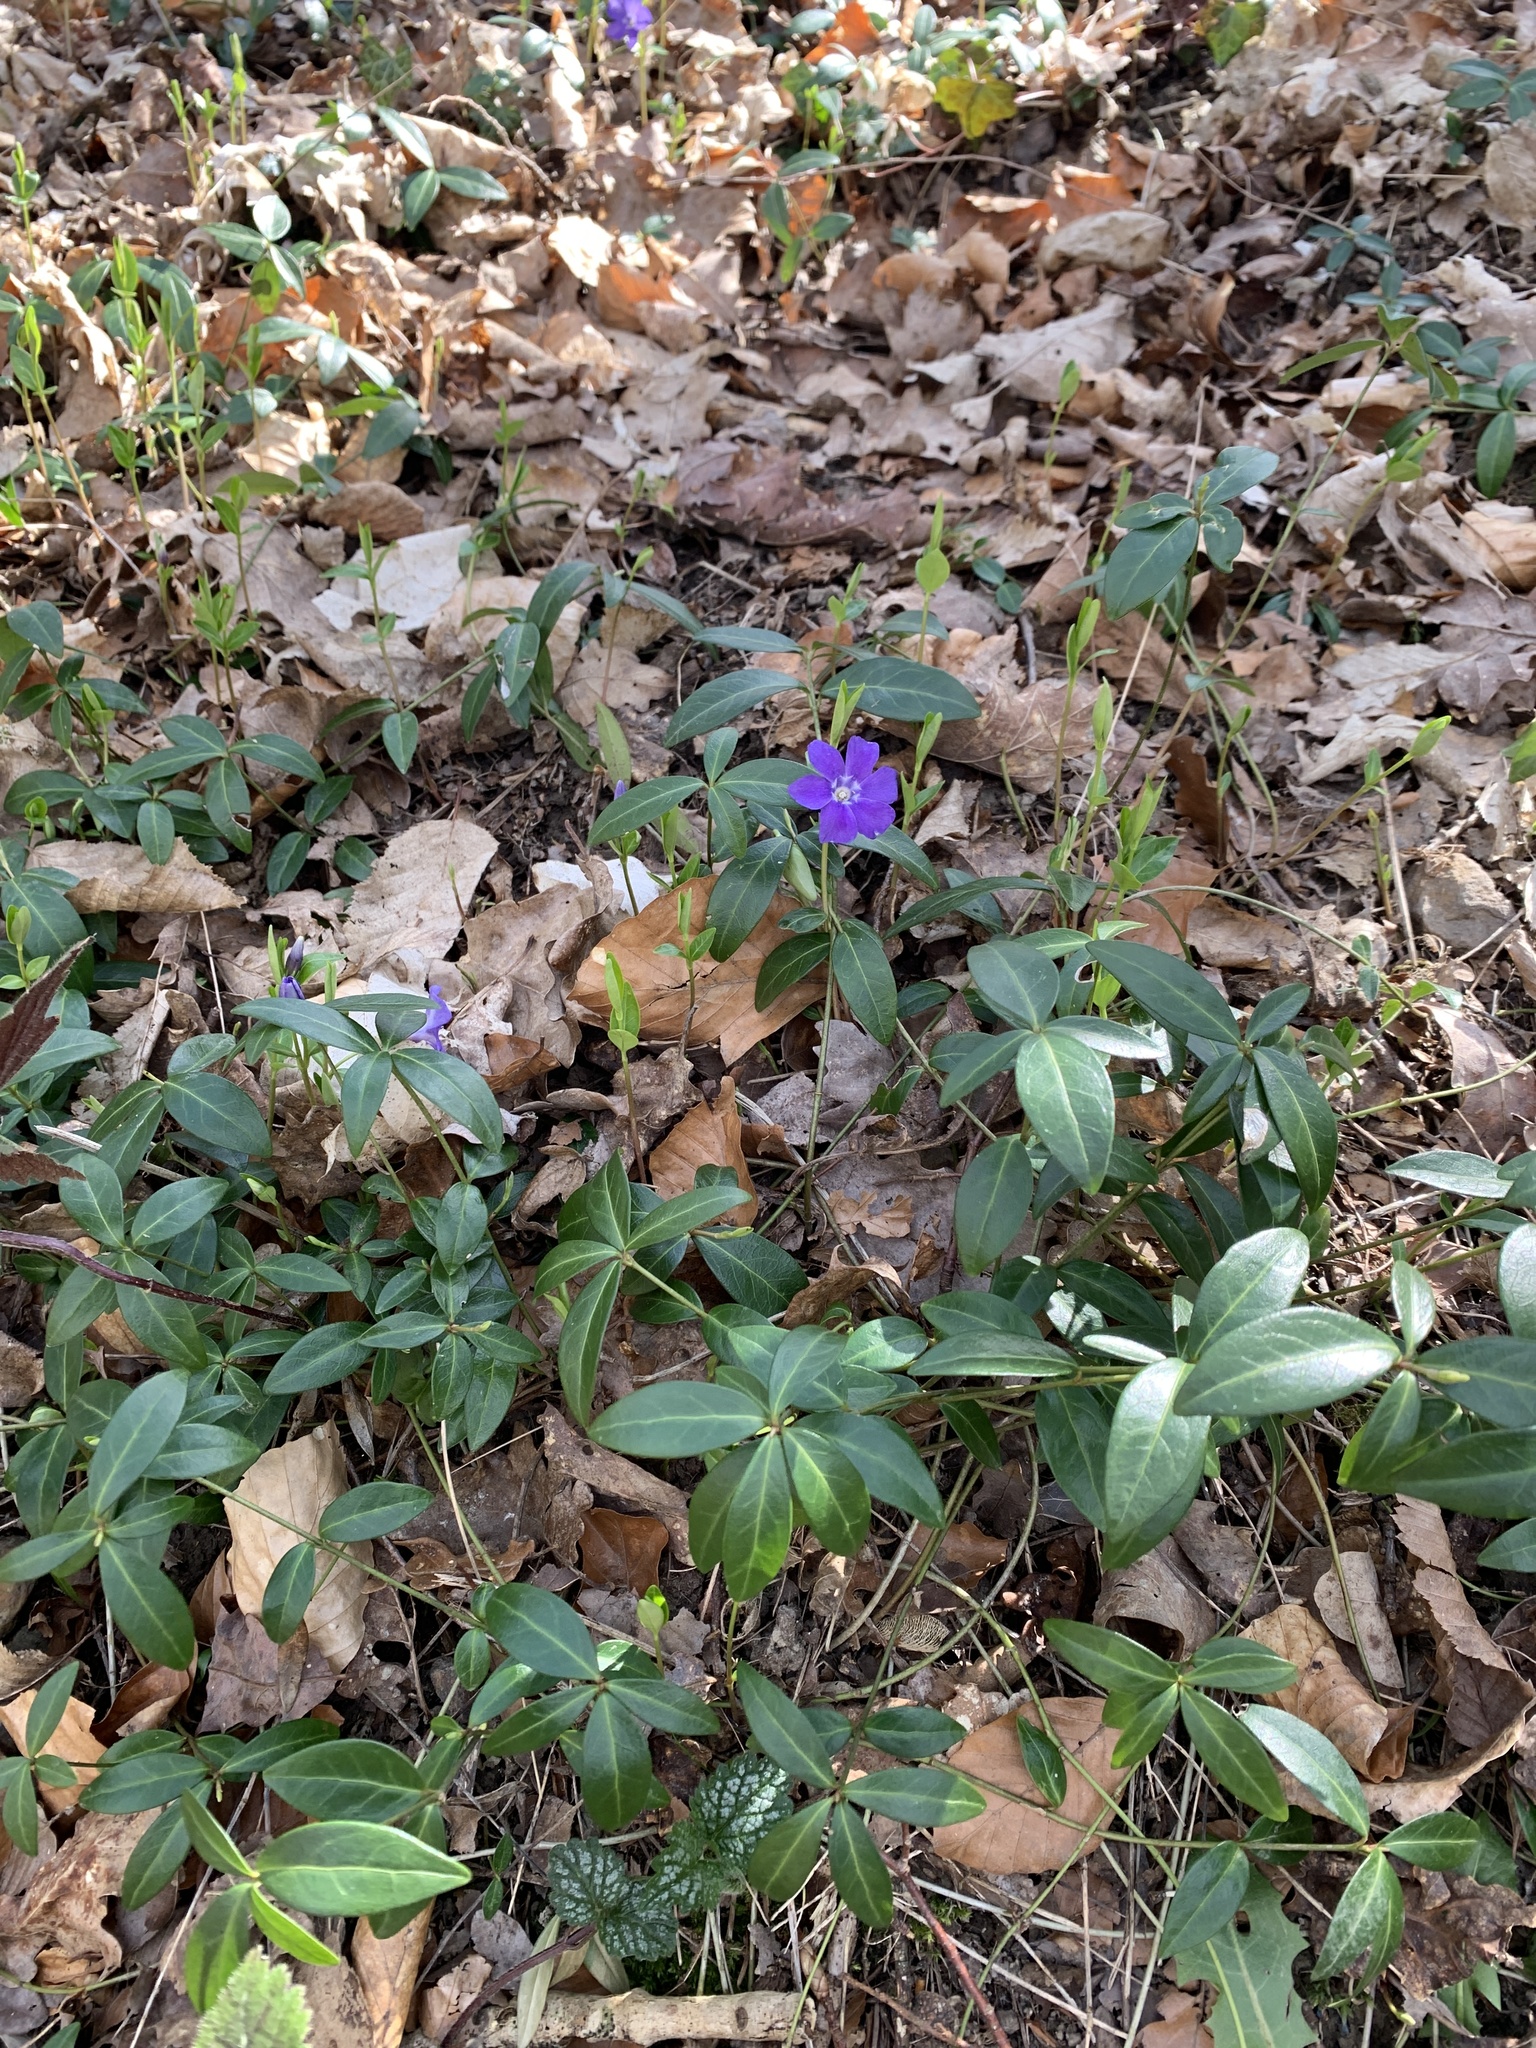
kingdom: Plantae
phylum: Tracheophyta
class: Magnoliopsida
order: Gentianales
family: Apocynaceae
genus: Vinca
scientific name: Vinca minor
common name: Lesser periwinkle
